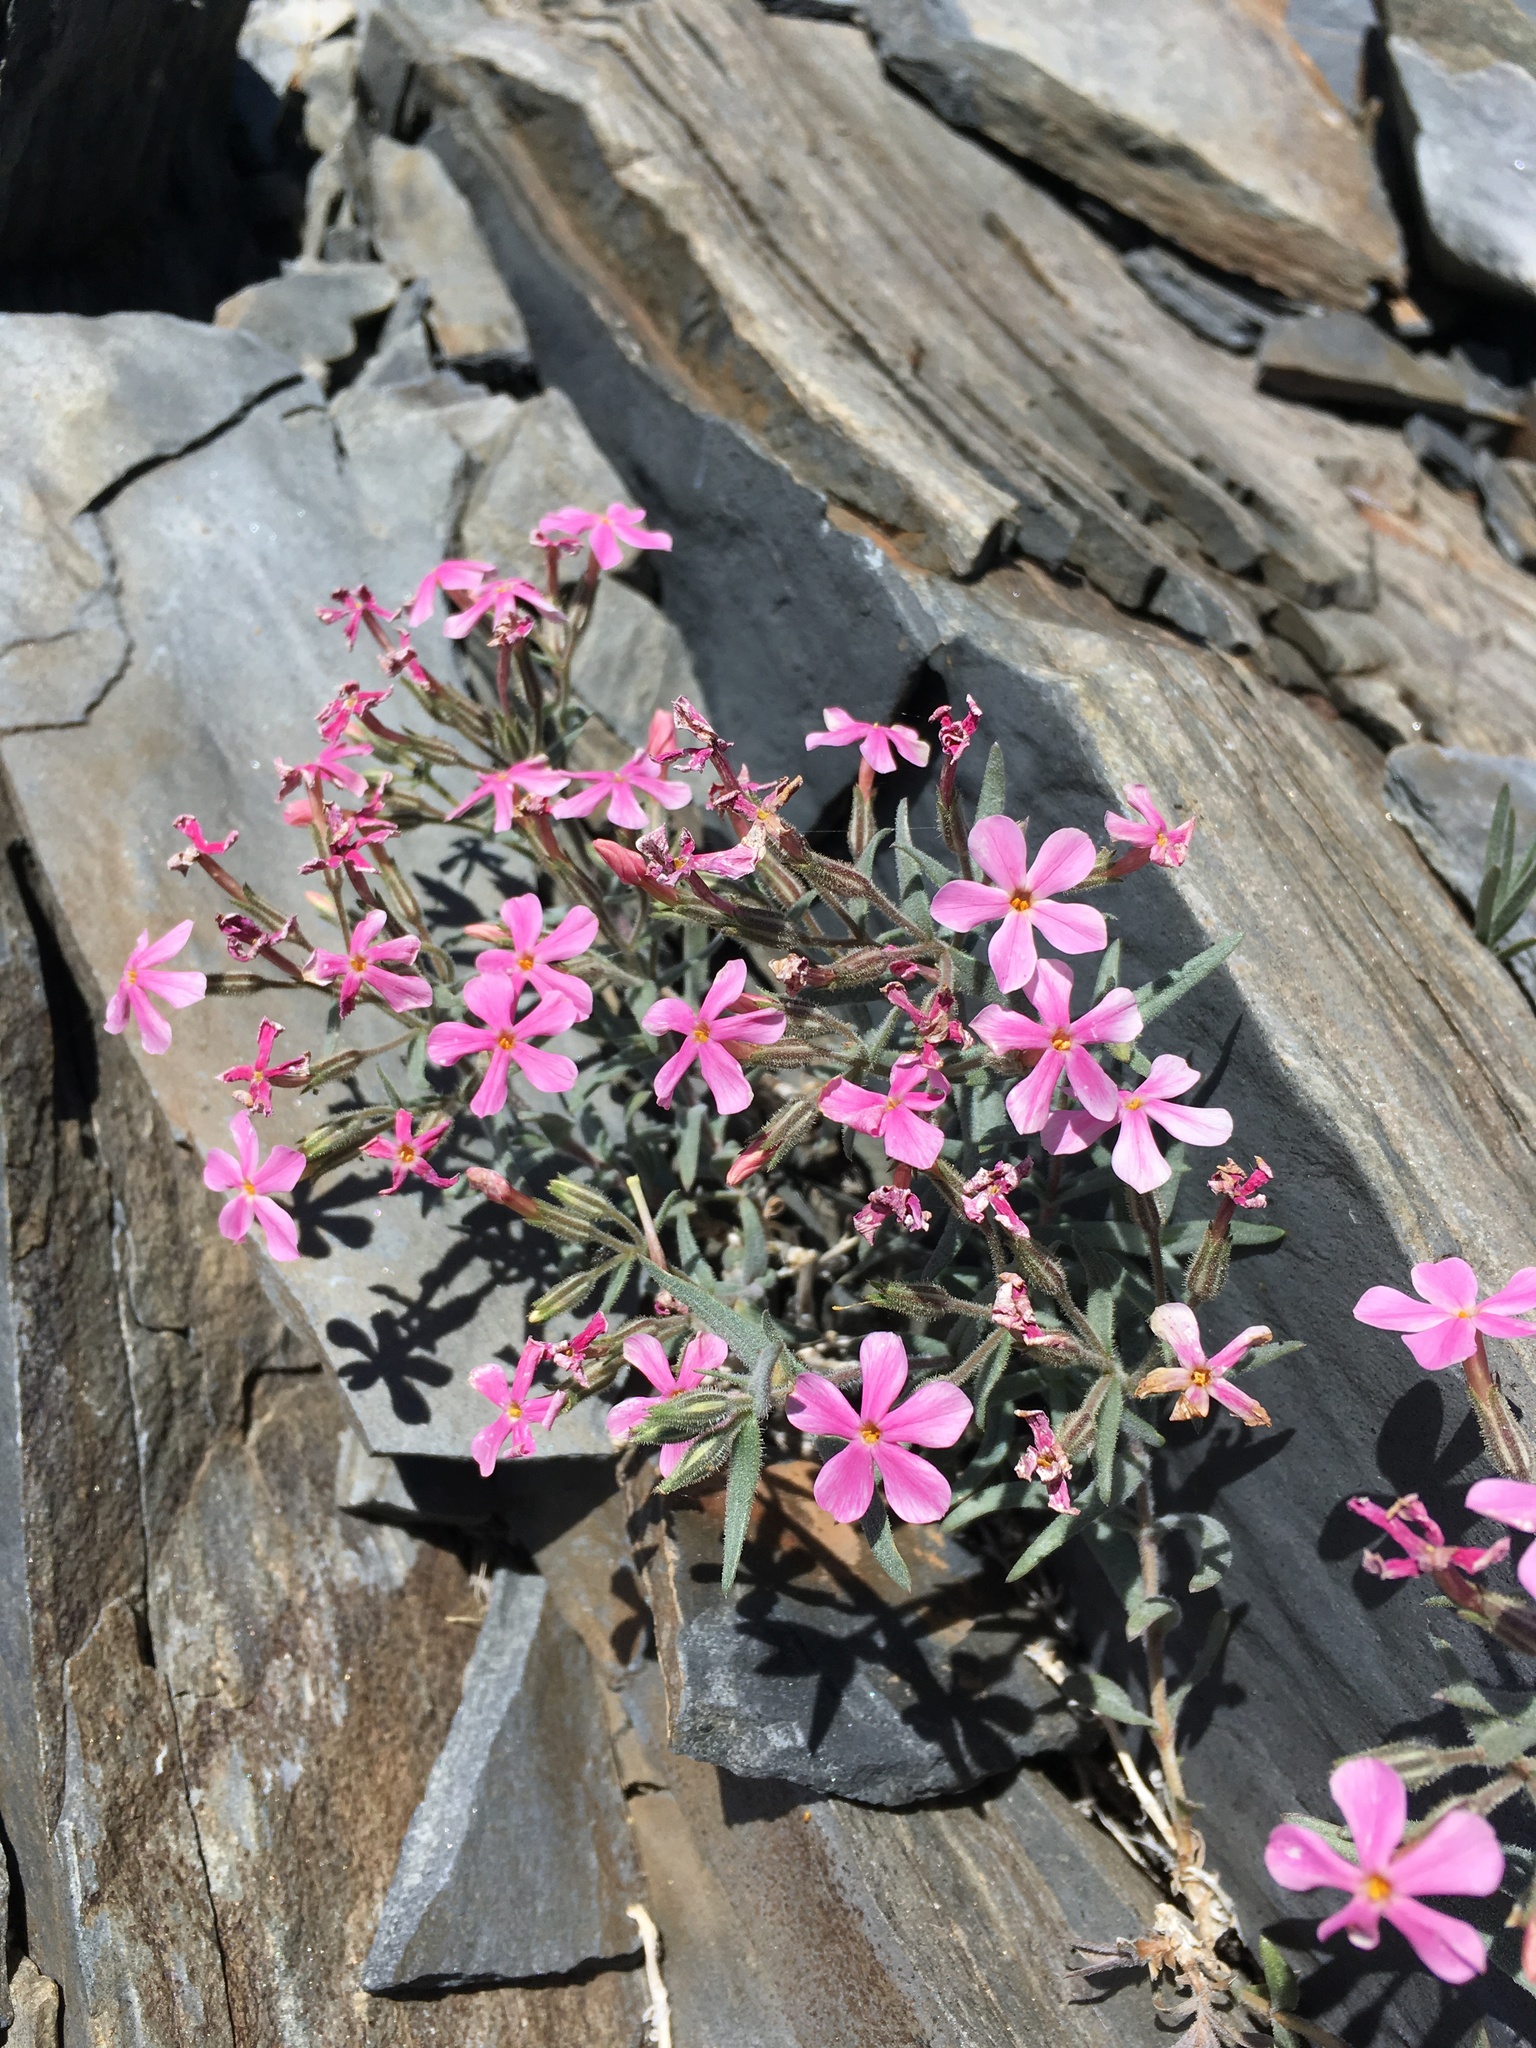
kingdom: Plantae
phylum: Tracheophyta
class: Magnoliopsida
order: Ericales
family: Polemoniaceae
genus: Phlox
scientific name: Phlox longifolia
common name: Longleaf phlox
